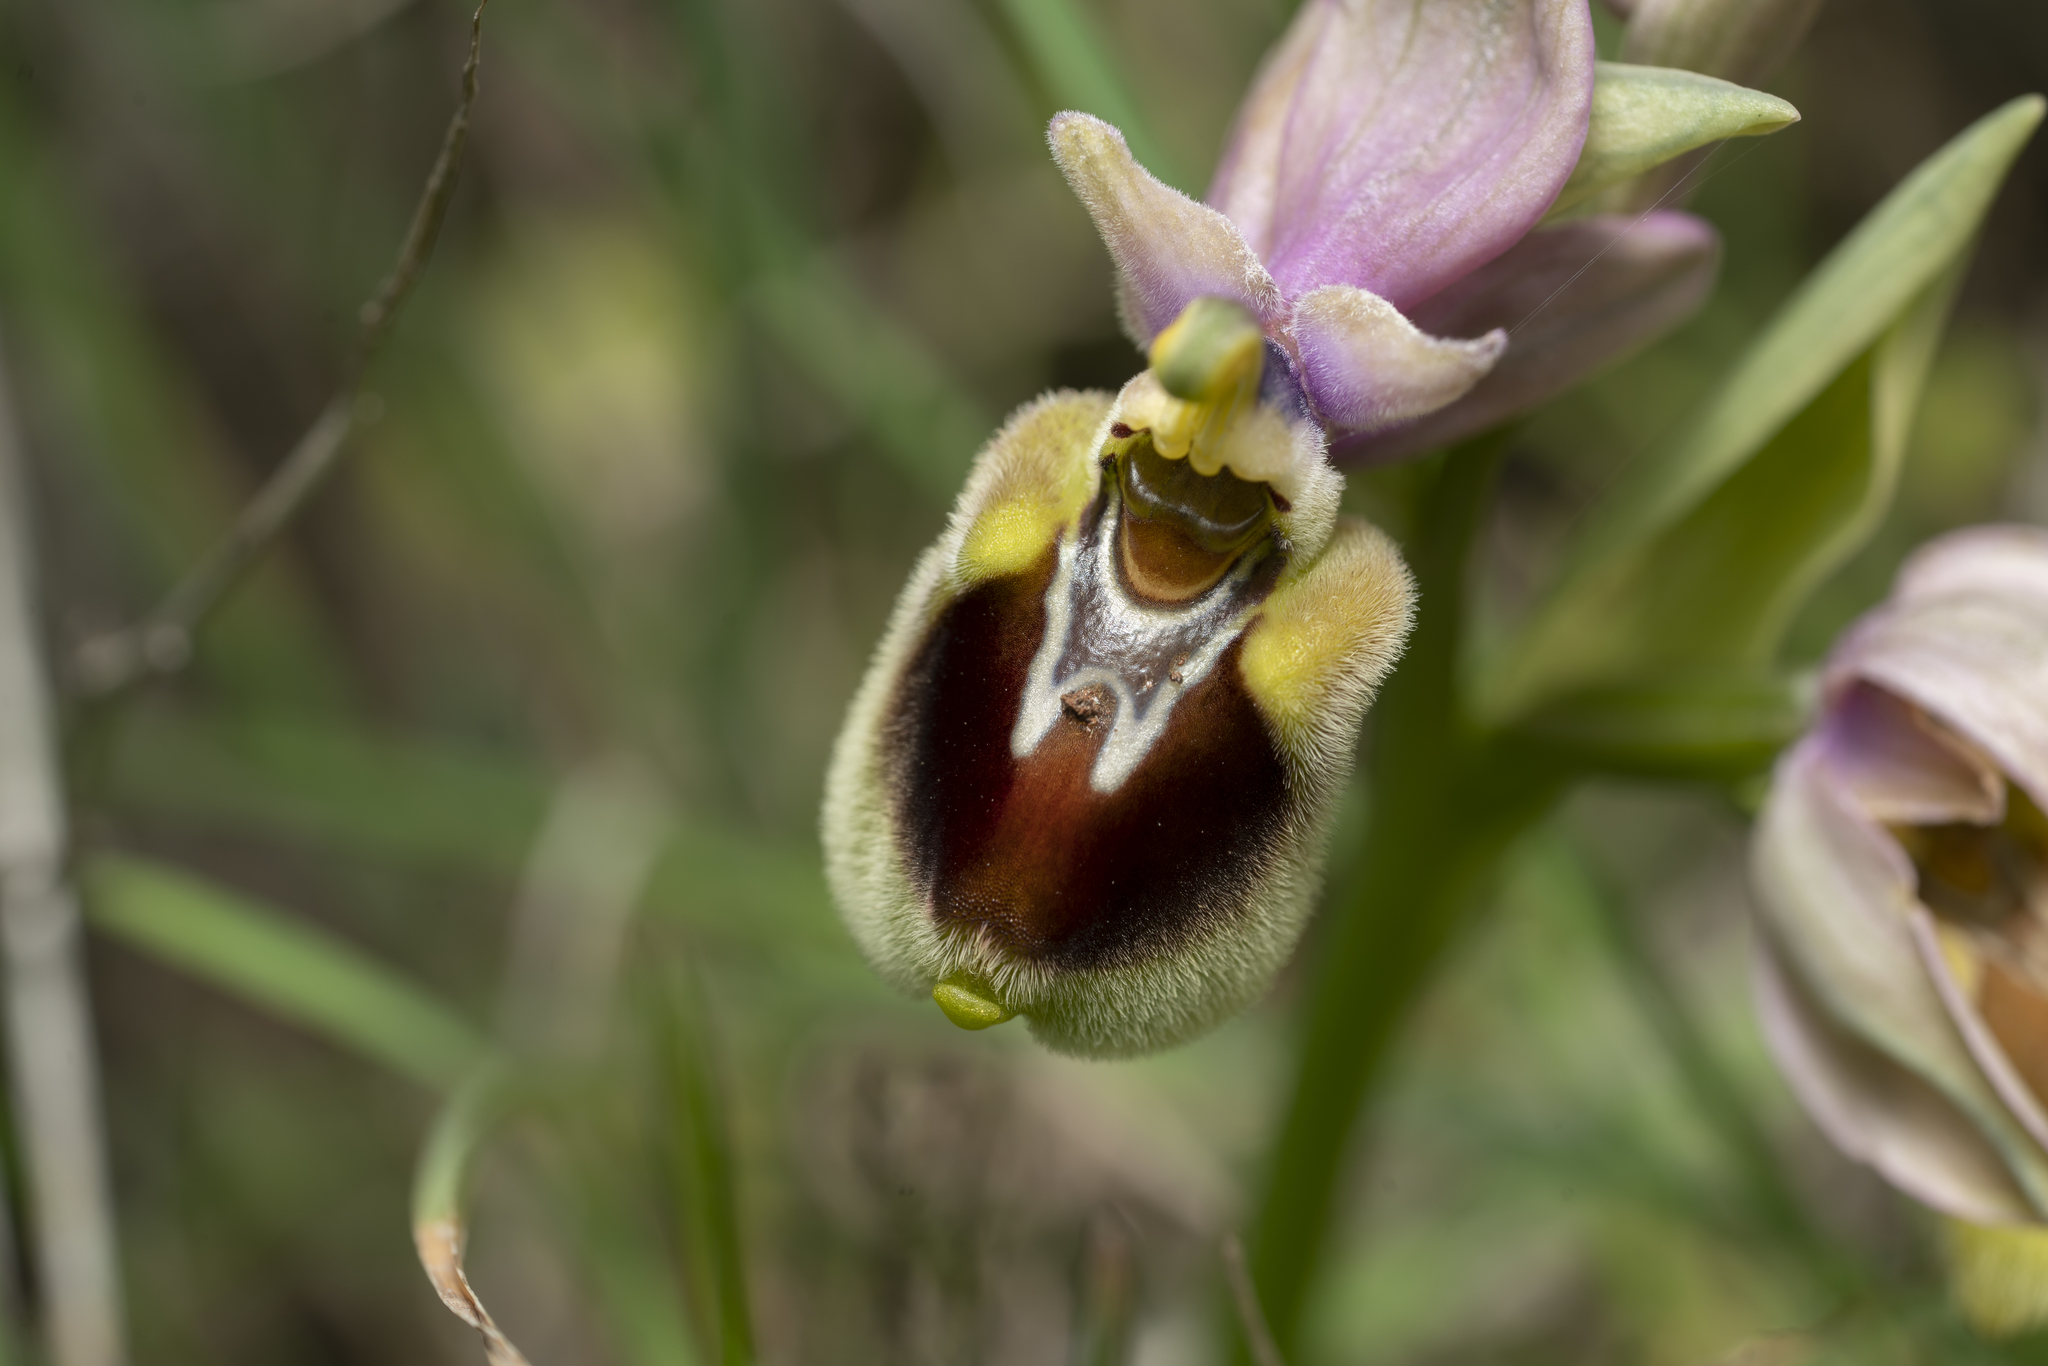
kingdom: Plantae
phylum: Tracheophyta
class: Liliopsida
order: Asparagales
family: Orchidaceae
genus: Ophrys
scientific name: Ophrys tenthredinifera
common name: Sawfly orchid
